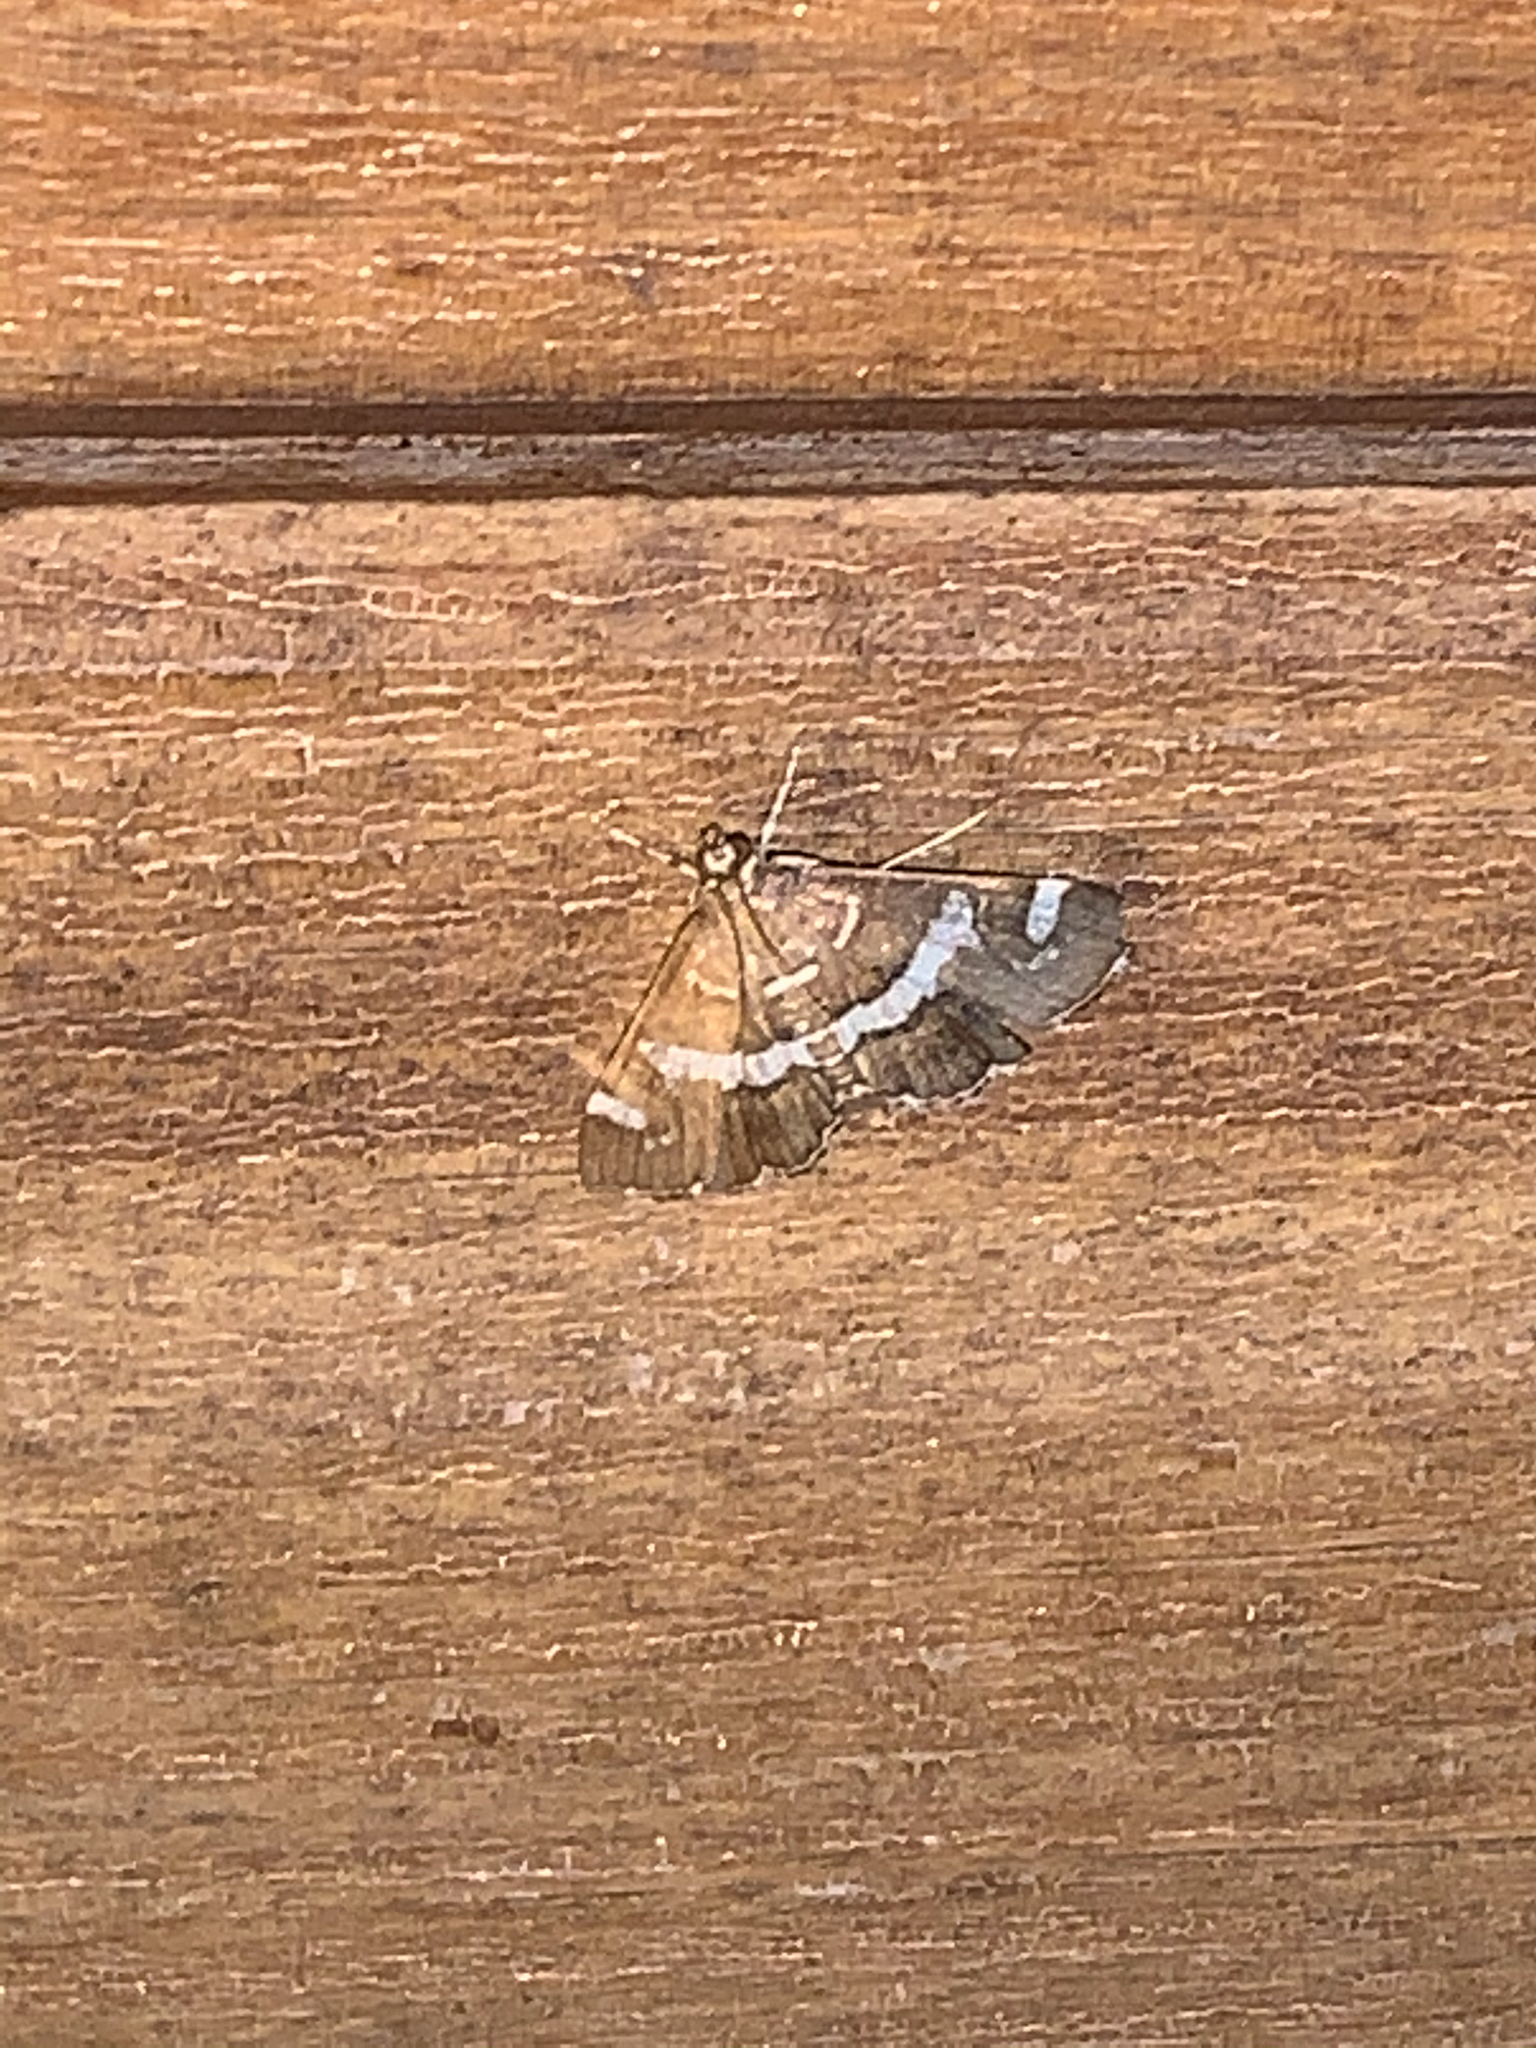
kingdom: Animalia
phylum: Arthropoda
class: Insecta
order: Lepidoptera
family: Crambidae
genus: Spoladea
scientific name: Spoladea recurvalis
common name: Beet webworm moth
